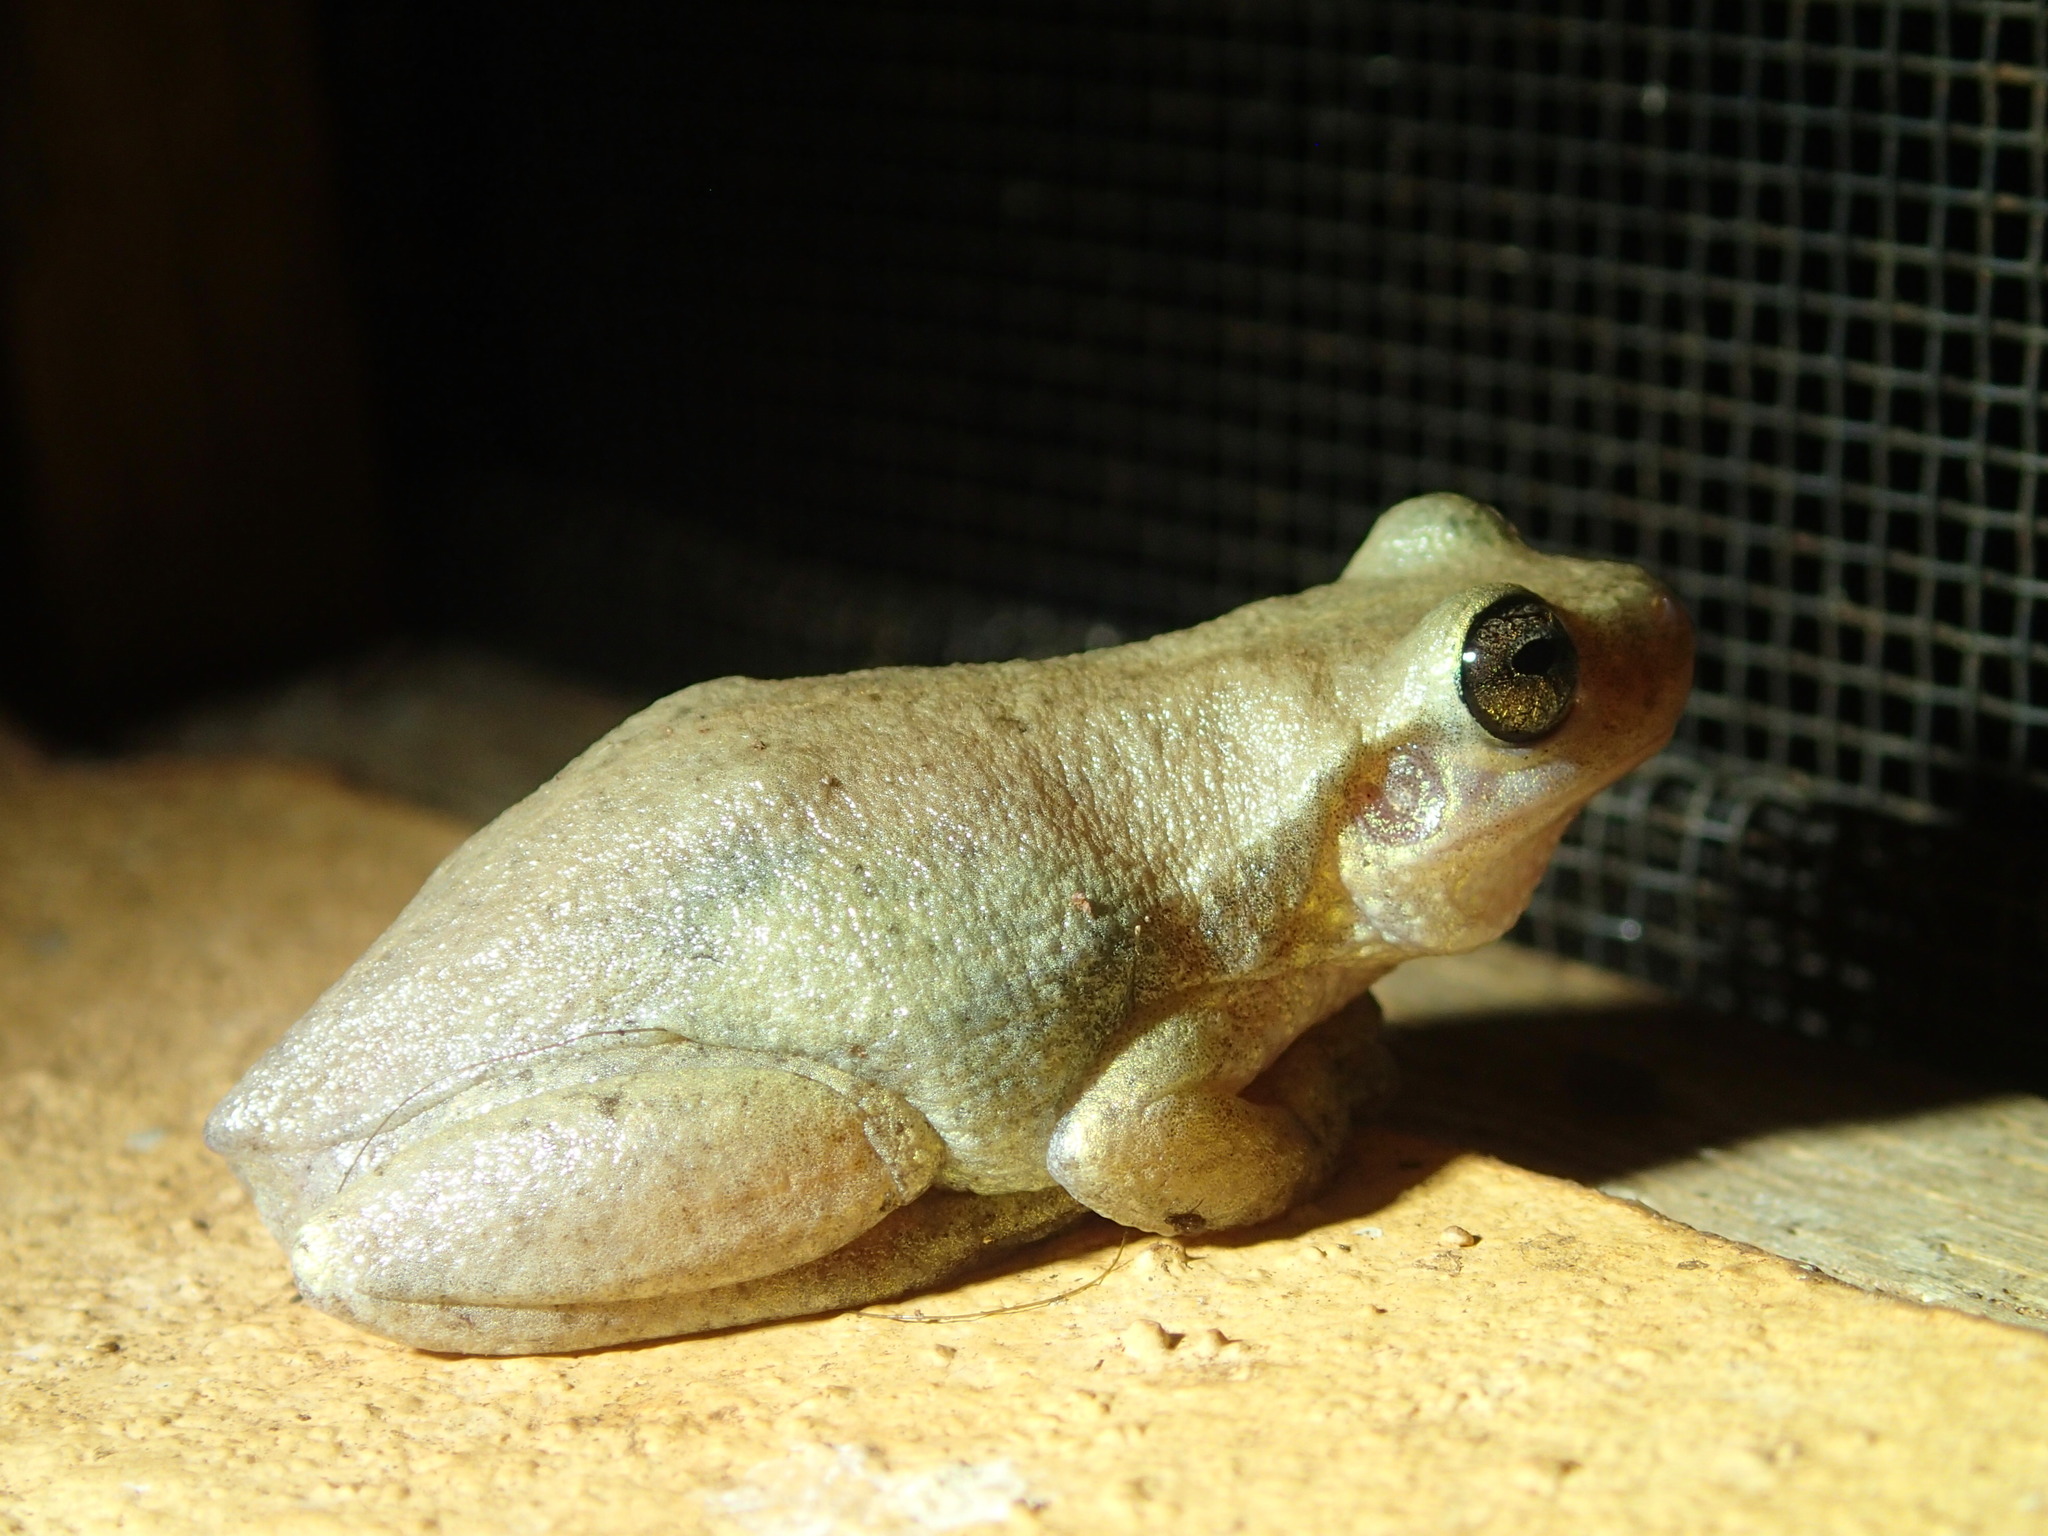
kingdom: Animalia
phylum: Chordata
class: Amphibia
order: Anura
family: Pelodryadidae
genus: Litoria
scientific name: Litoria rubella
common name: Desert tree frog
